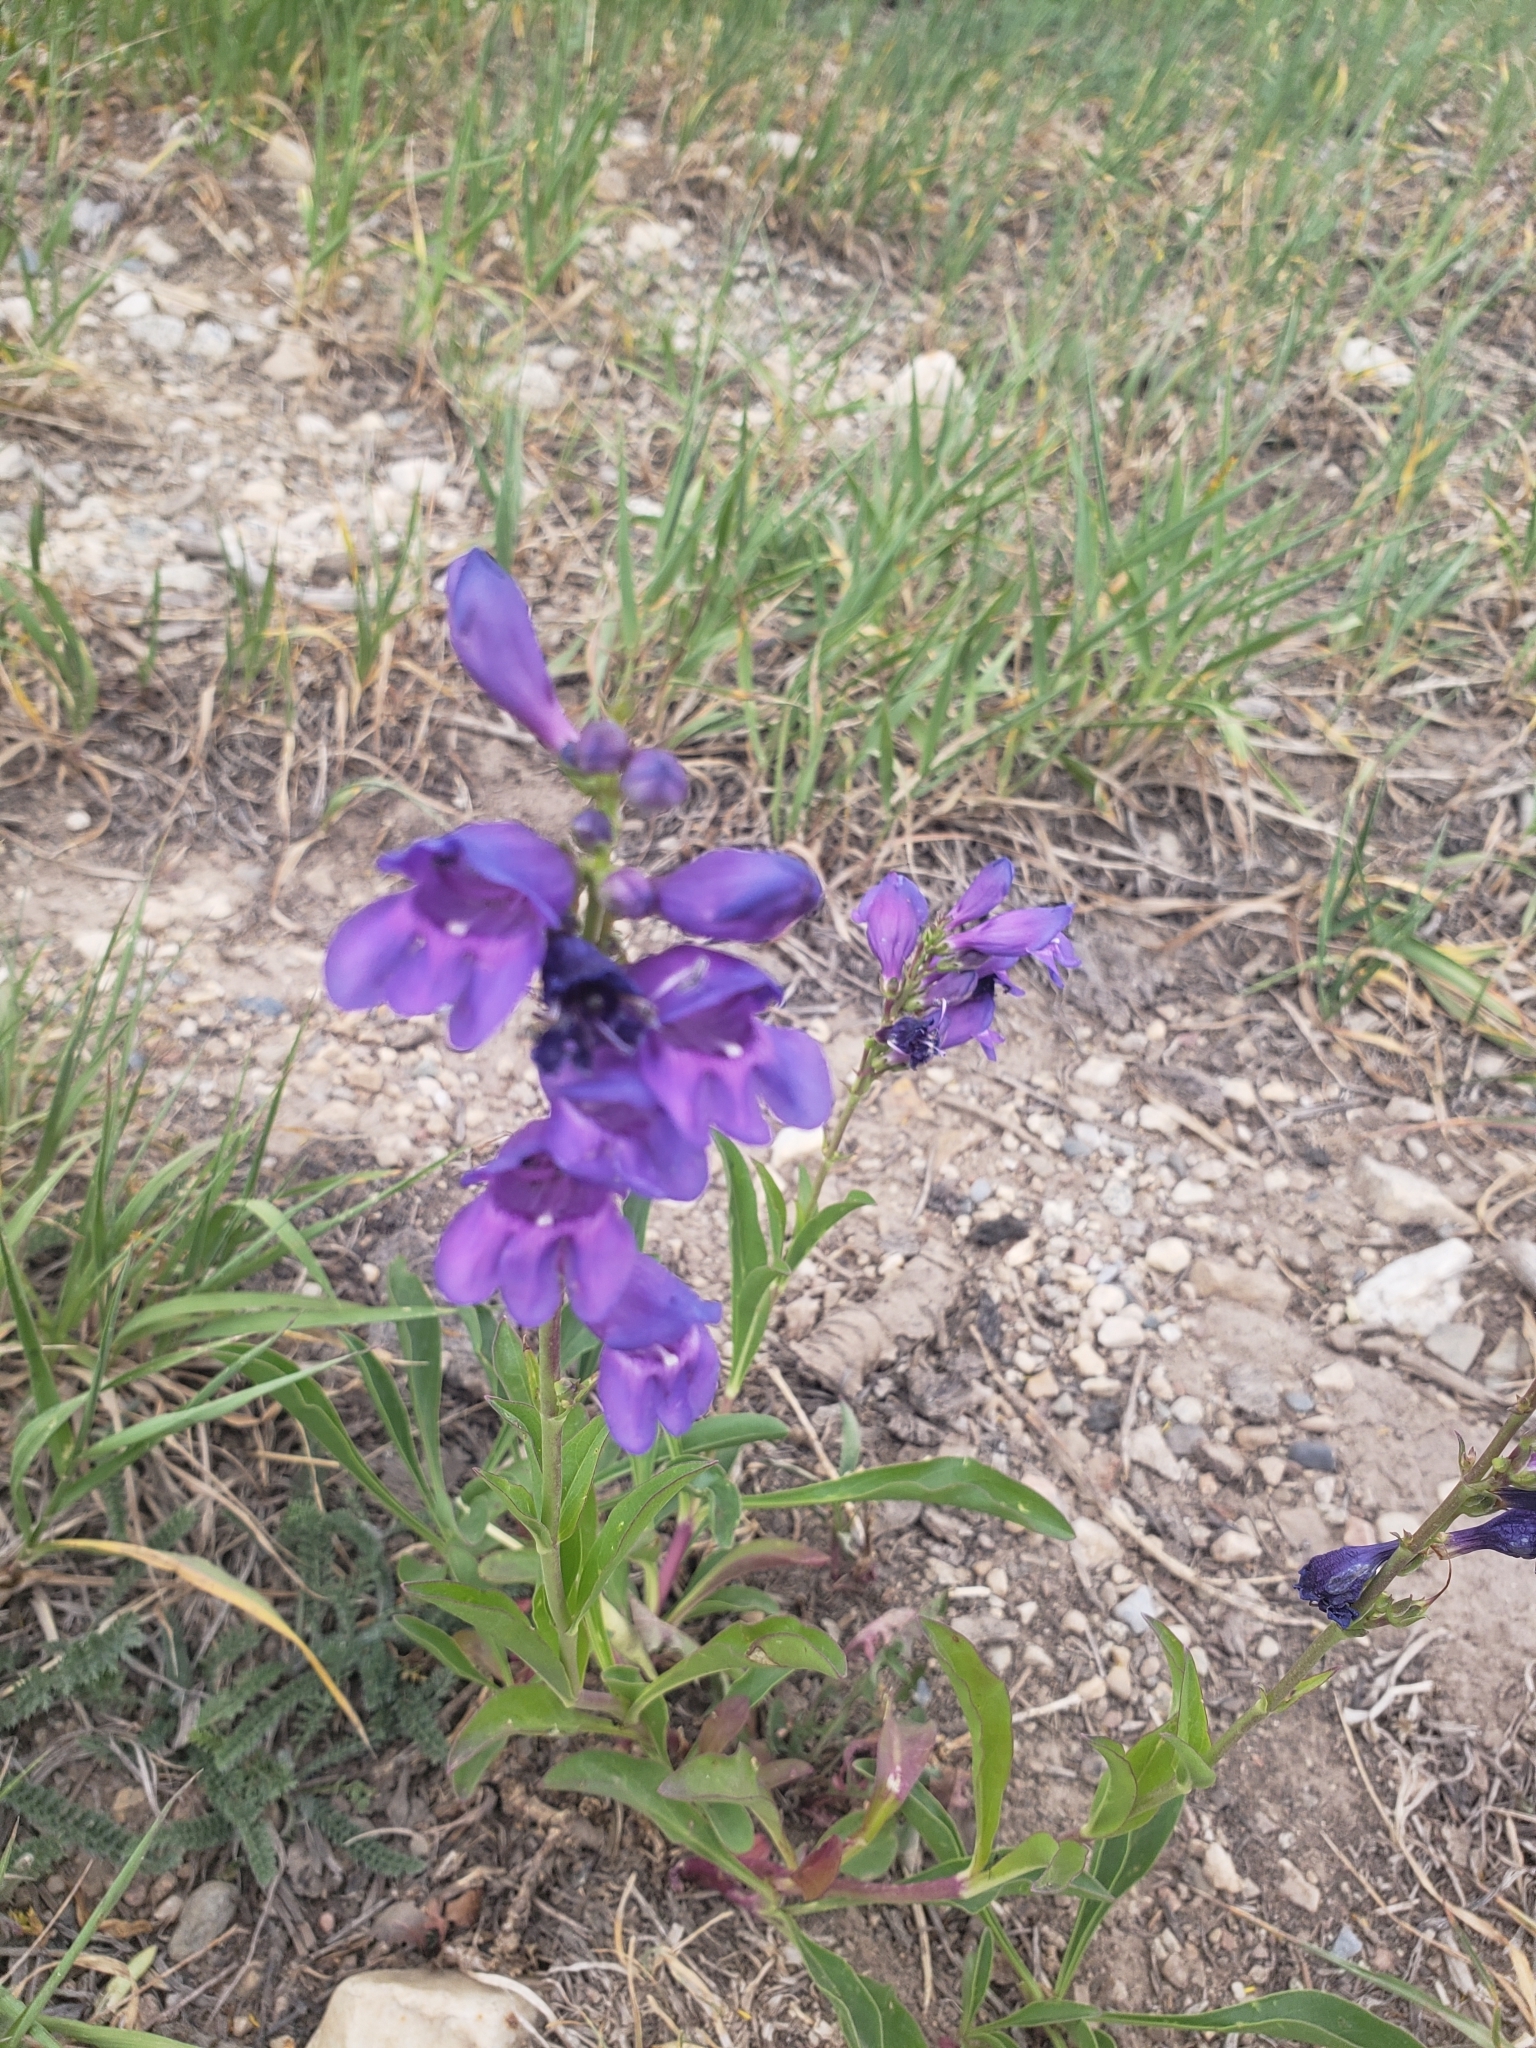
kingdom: Plantae
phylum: Tracheophyta
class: Magnoliopsida
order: Lamiales
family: Plantaginaceae
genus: Penstemon
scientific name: Penstemon strictus
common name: Rocky mountain penstemon
